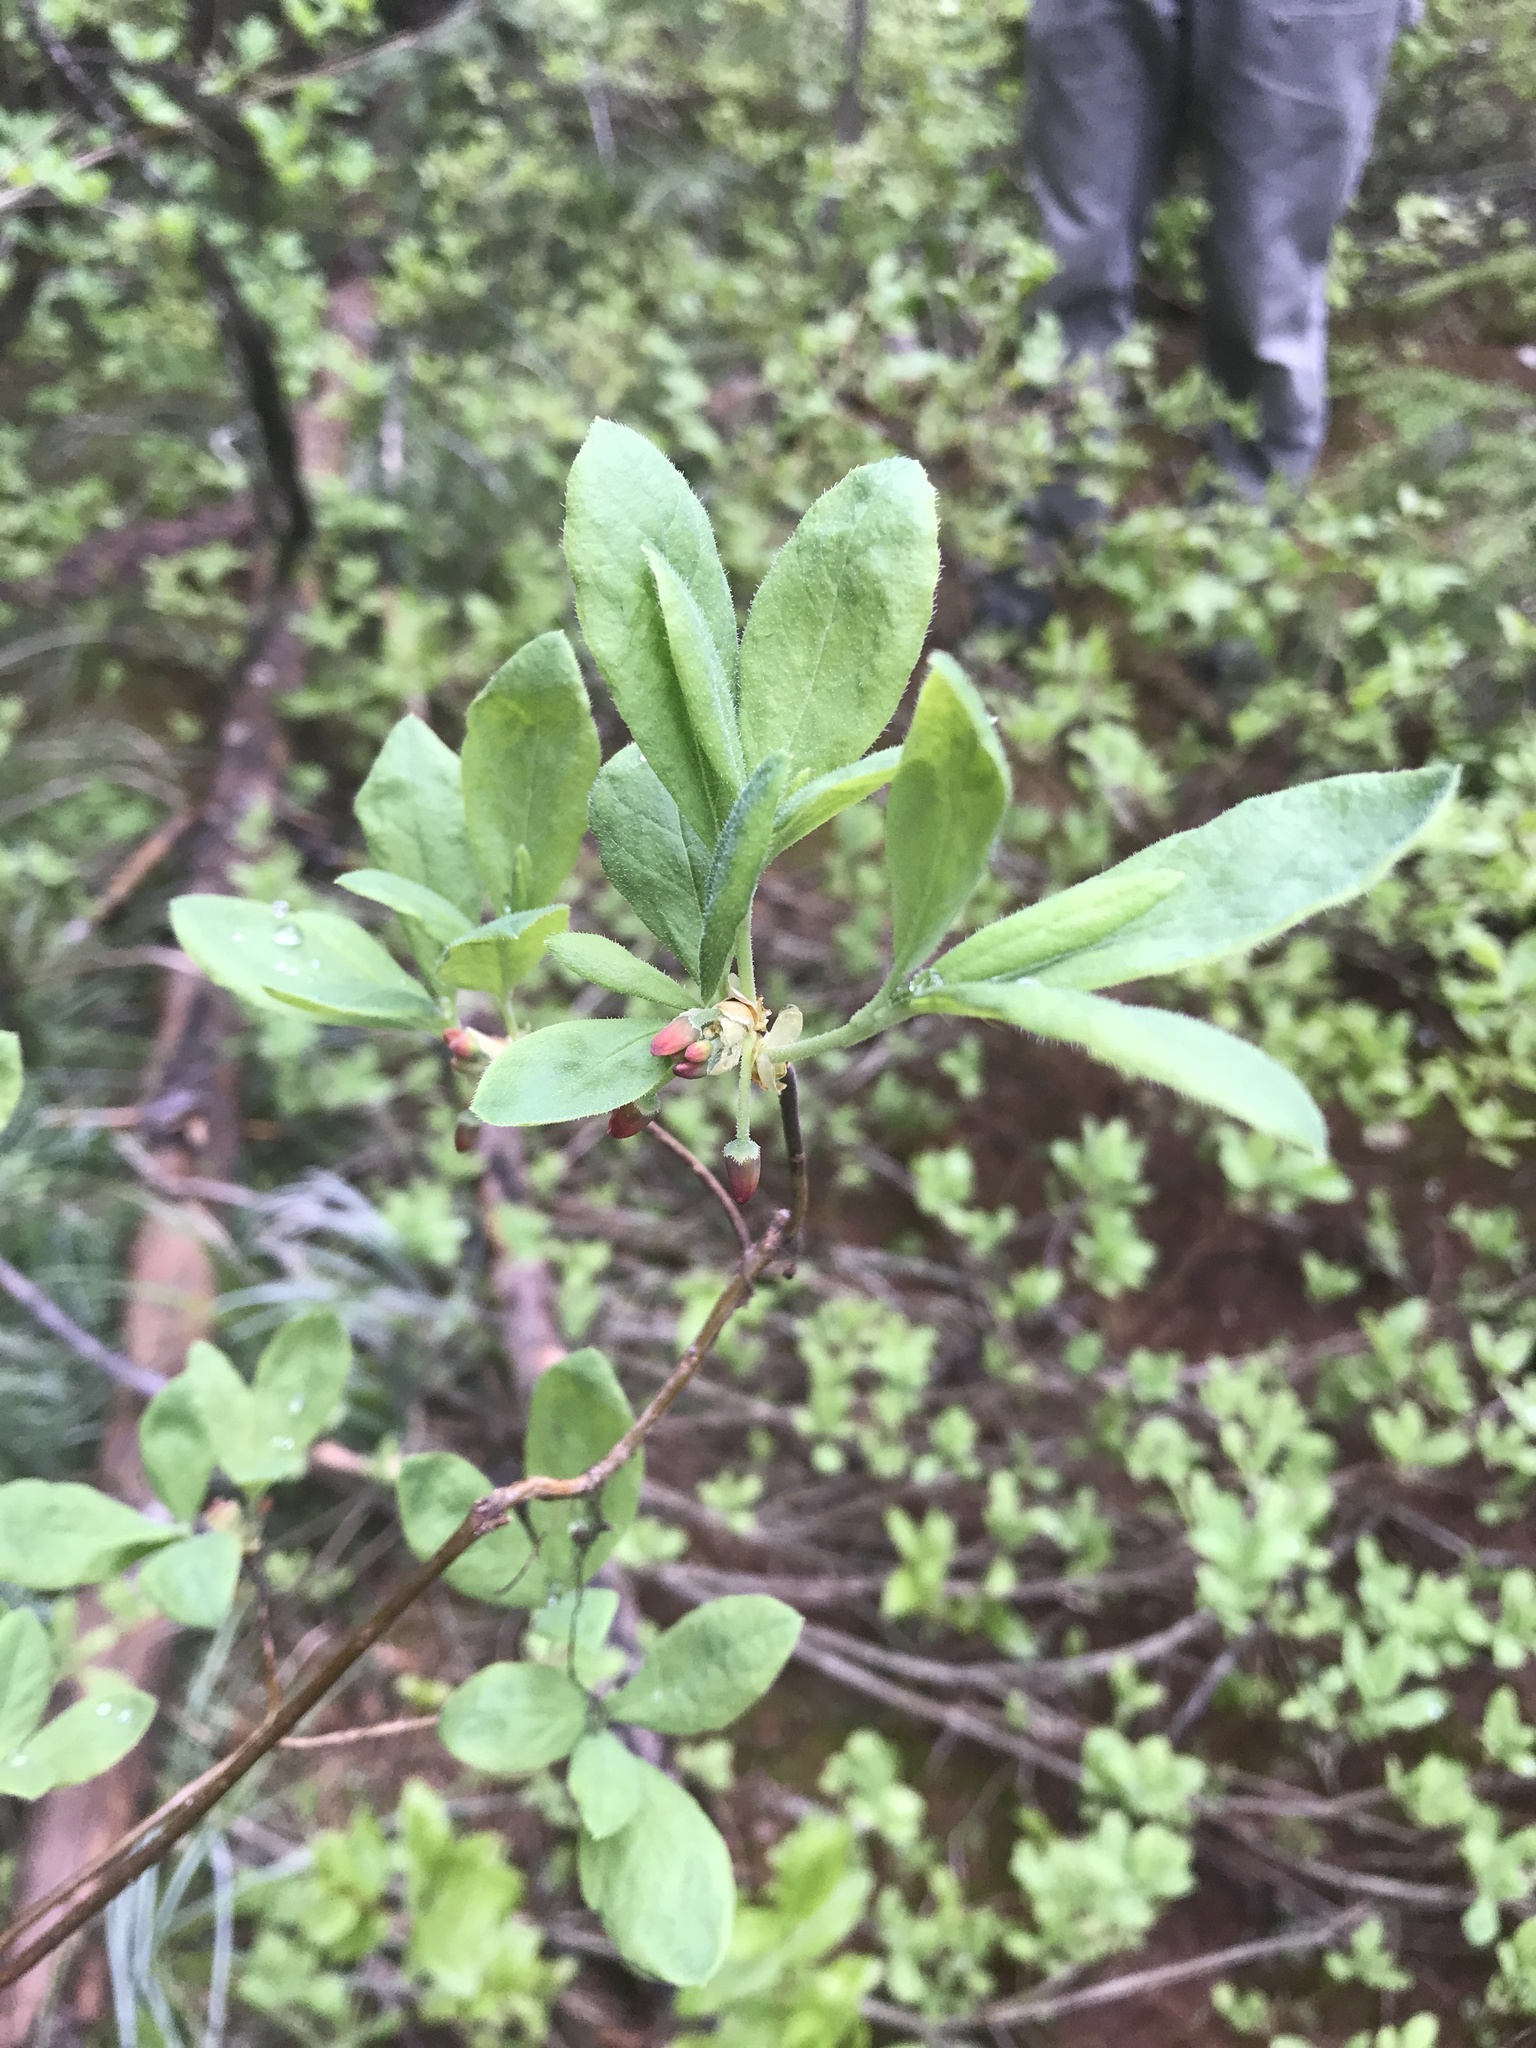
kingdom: Plantae
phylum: Tracheophyta
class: Magnoliopsida
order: Ericales
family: Ericaceae
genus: Rhododendron
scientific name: Rhododendron menziesii
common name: Pacific menziesia
